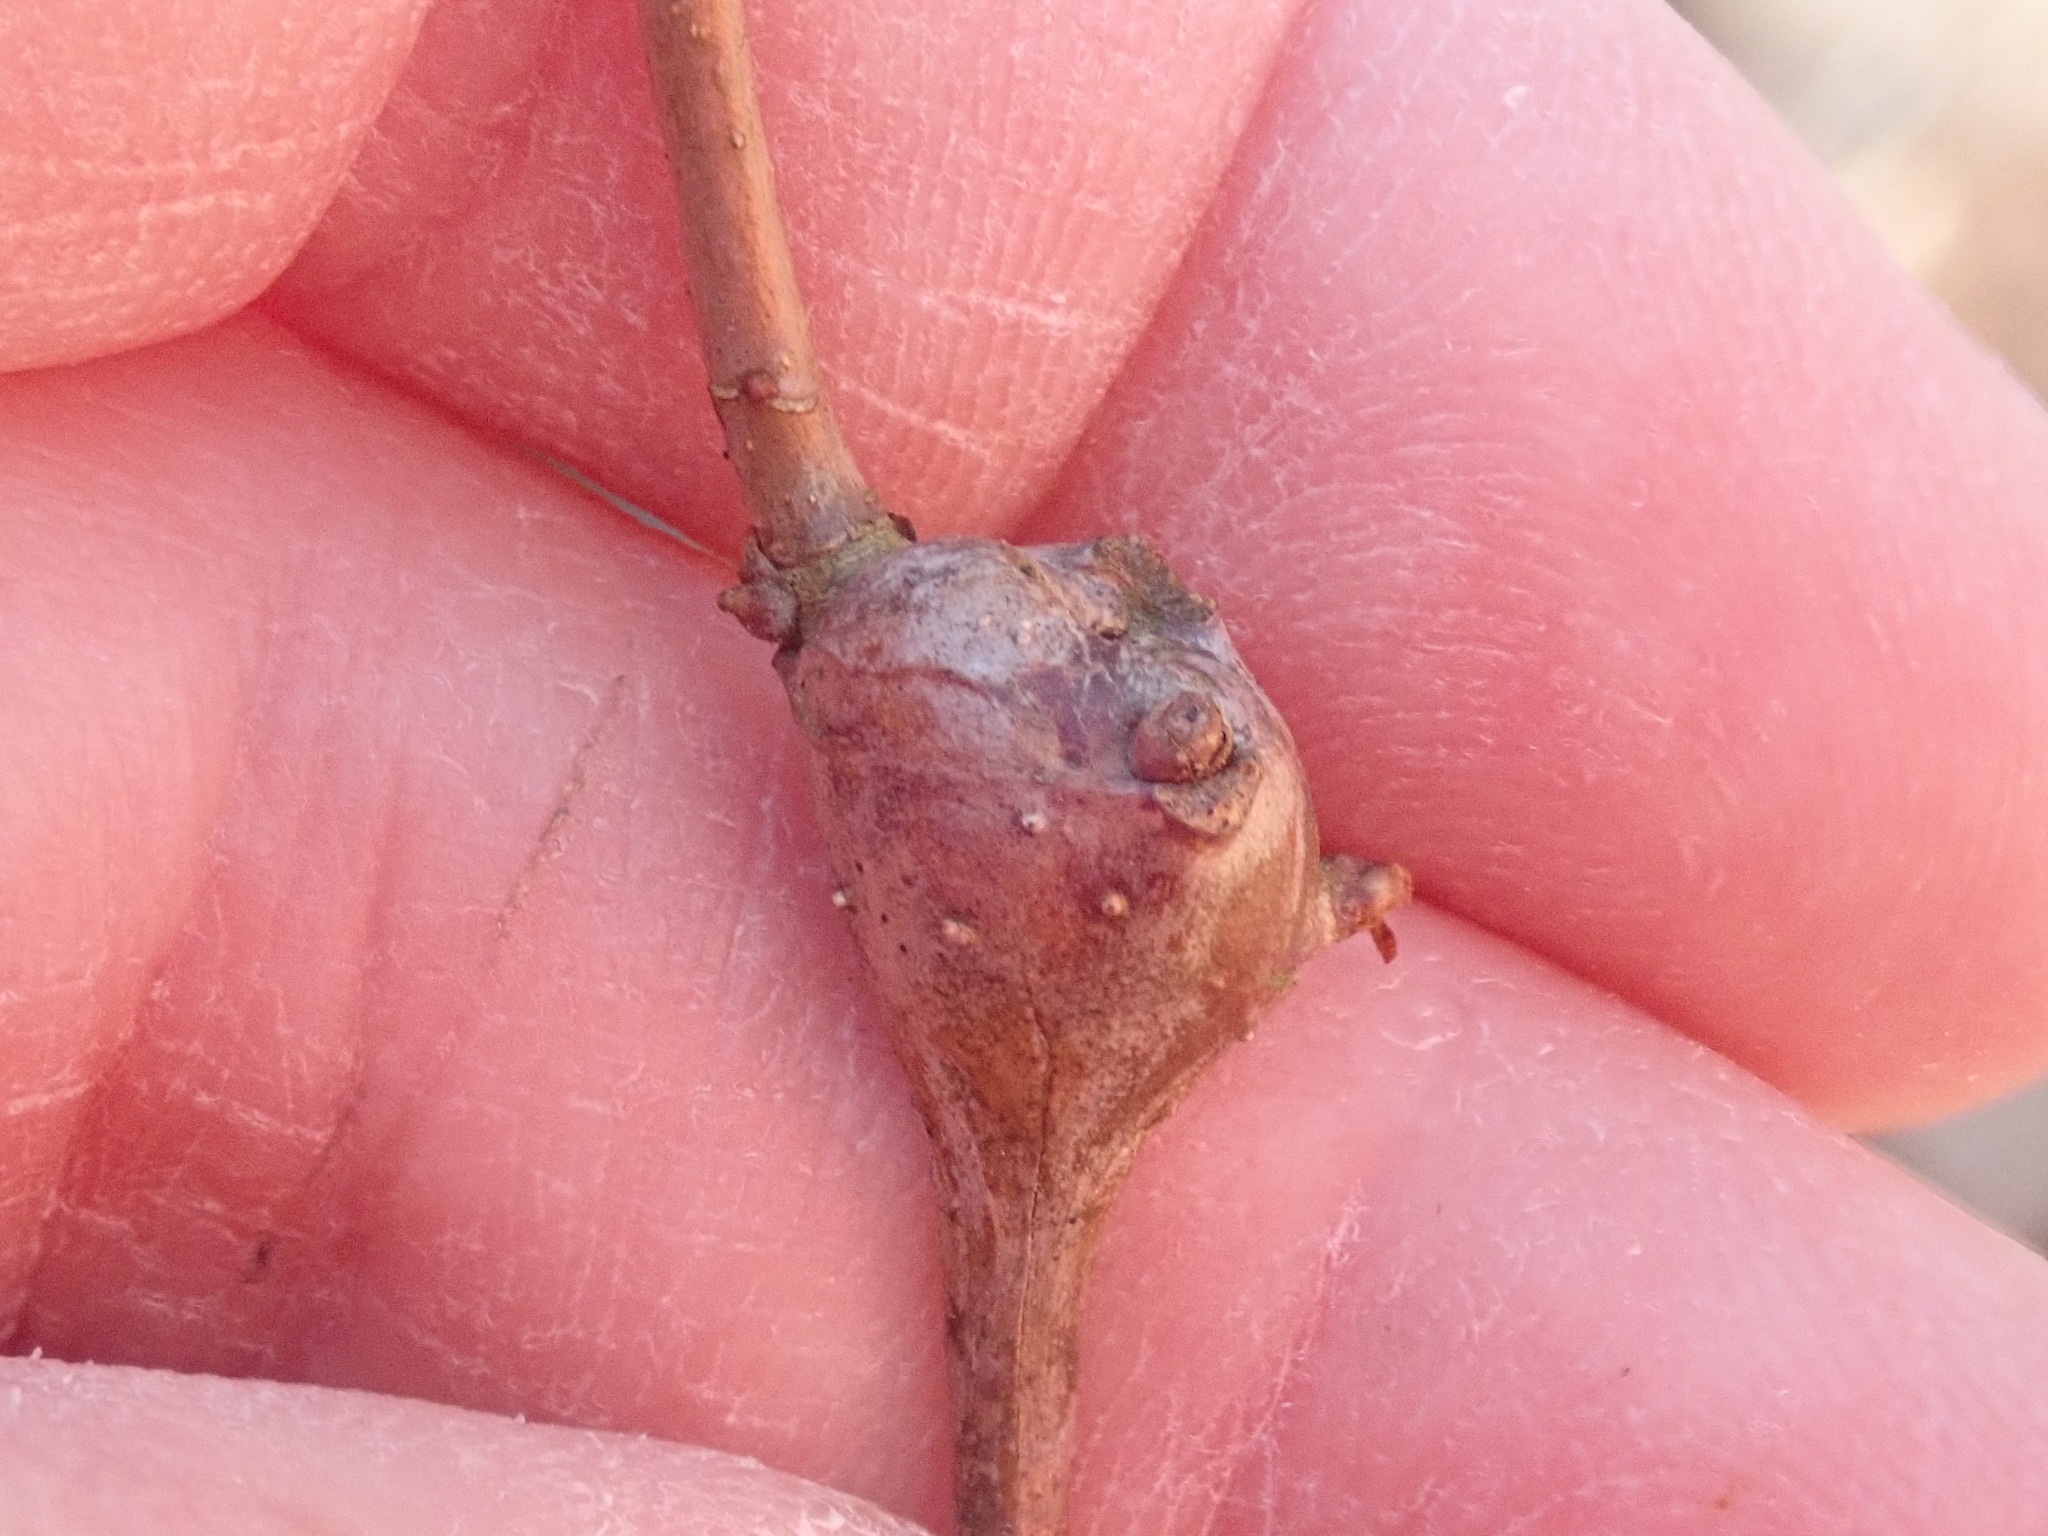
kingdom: Animalia
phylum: Arthropoda
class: Insecta
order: Hymenoptera
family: Cynipidae
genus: Callirhytis
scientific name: Callirhytis clavula
